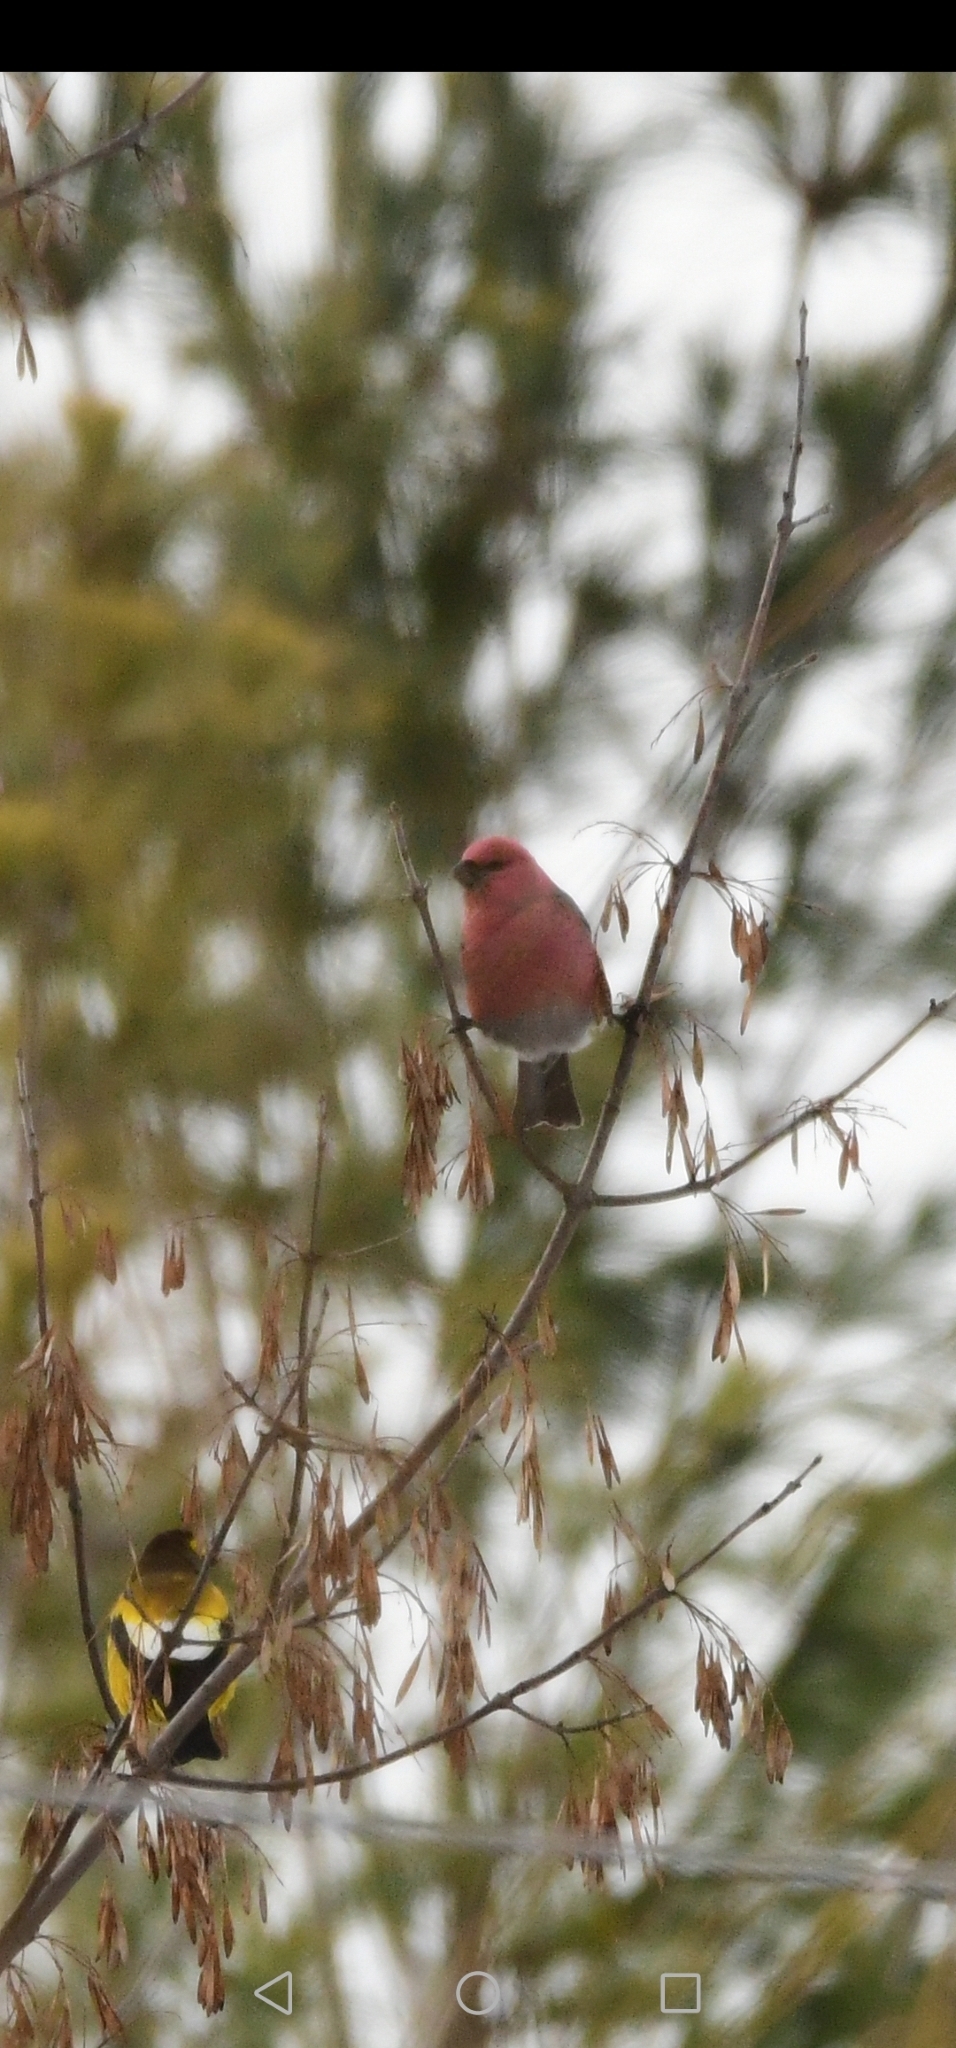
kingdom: Animalia
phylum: Chordata
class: Aves
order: Passeriformes
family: Fringillidae
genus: Pinicola
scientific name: Pinicola enucleator
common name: Pine grosbeak
